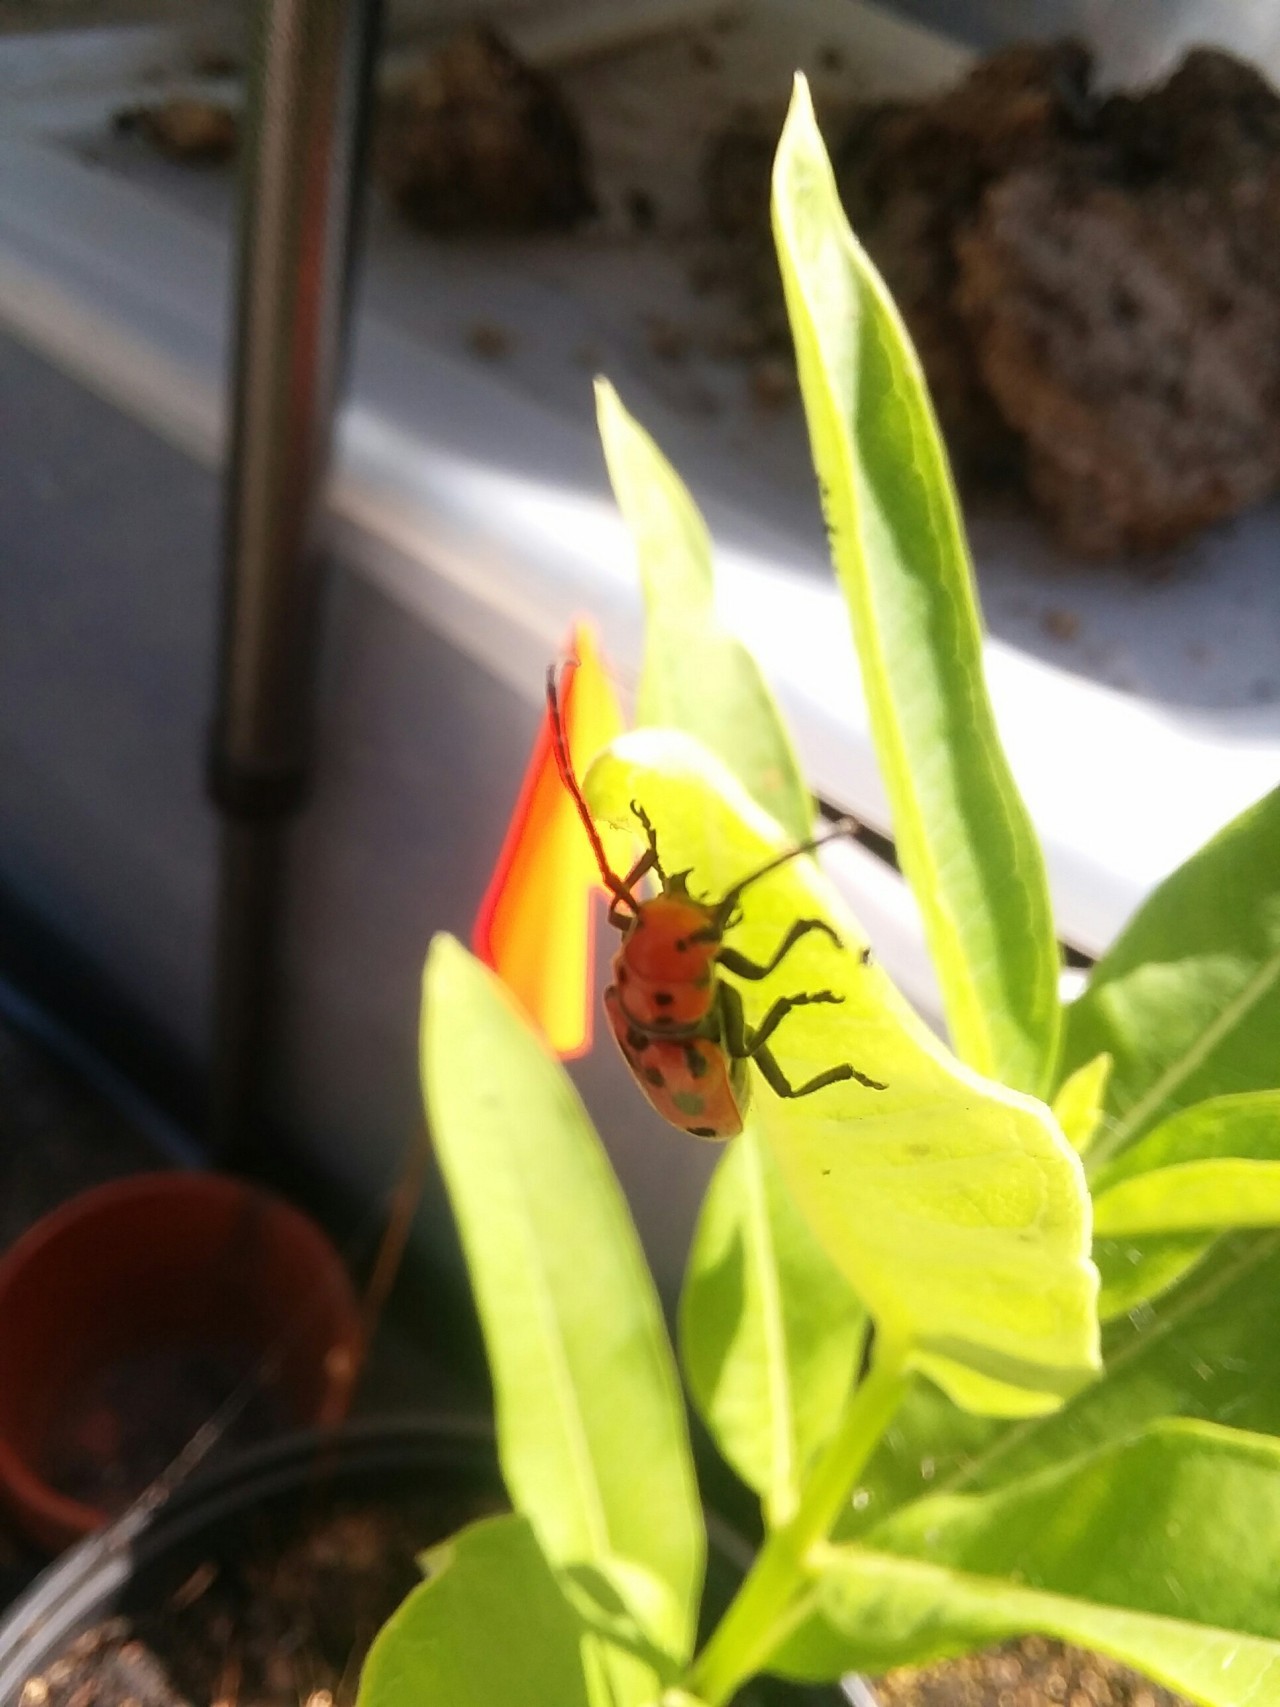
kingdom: Animalia
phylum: Arthropoda
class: Insecta
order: Coleoptera
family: Cerambycidae
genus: Tetraopes
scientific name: Tetraopes tetrophthalmus
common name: Red milkweed beetle
